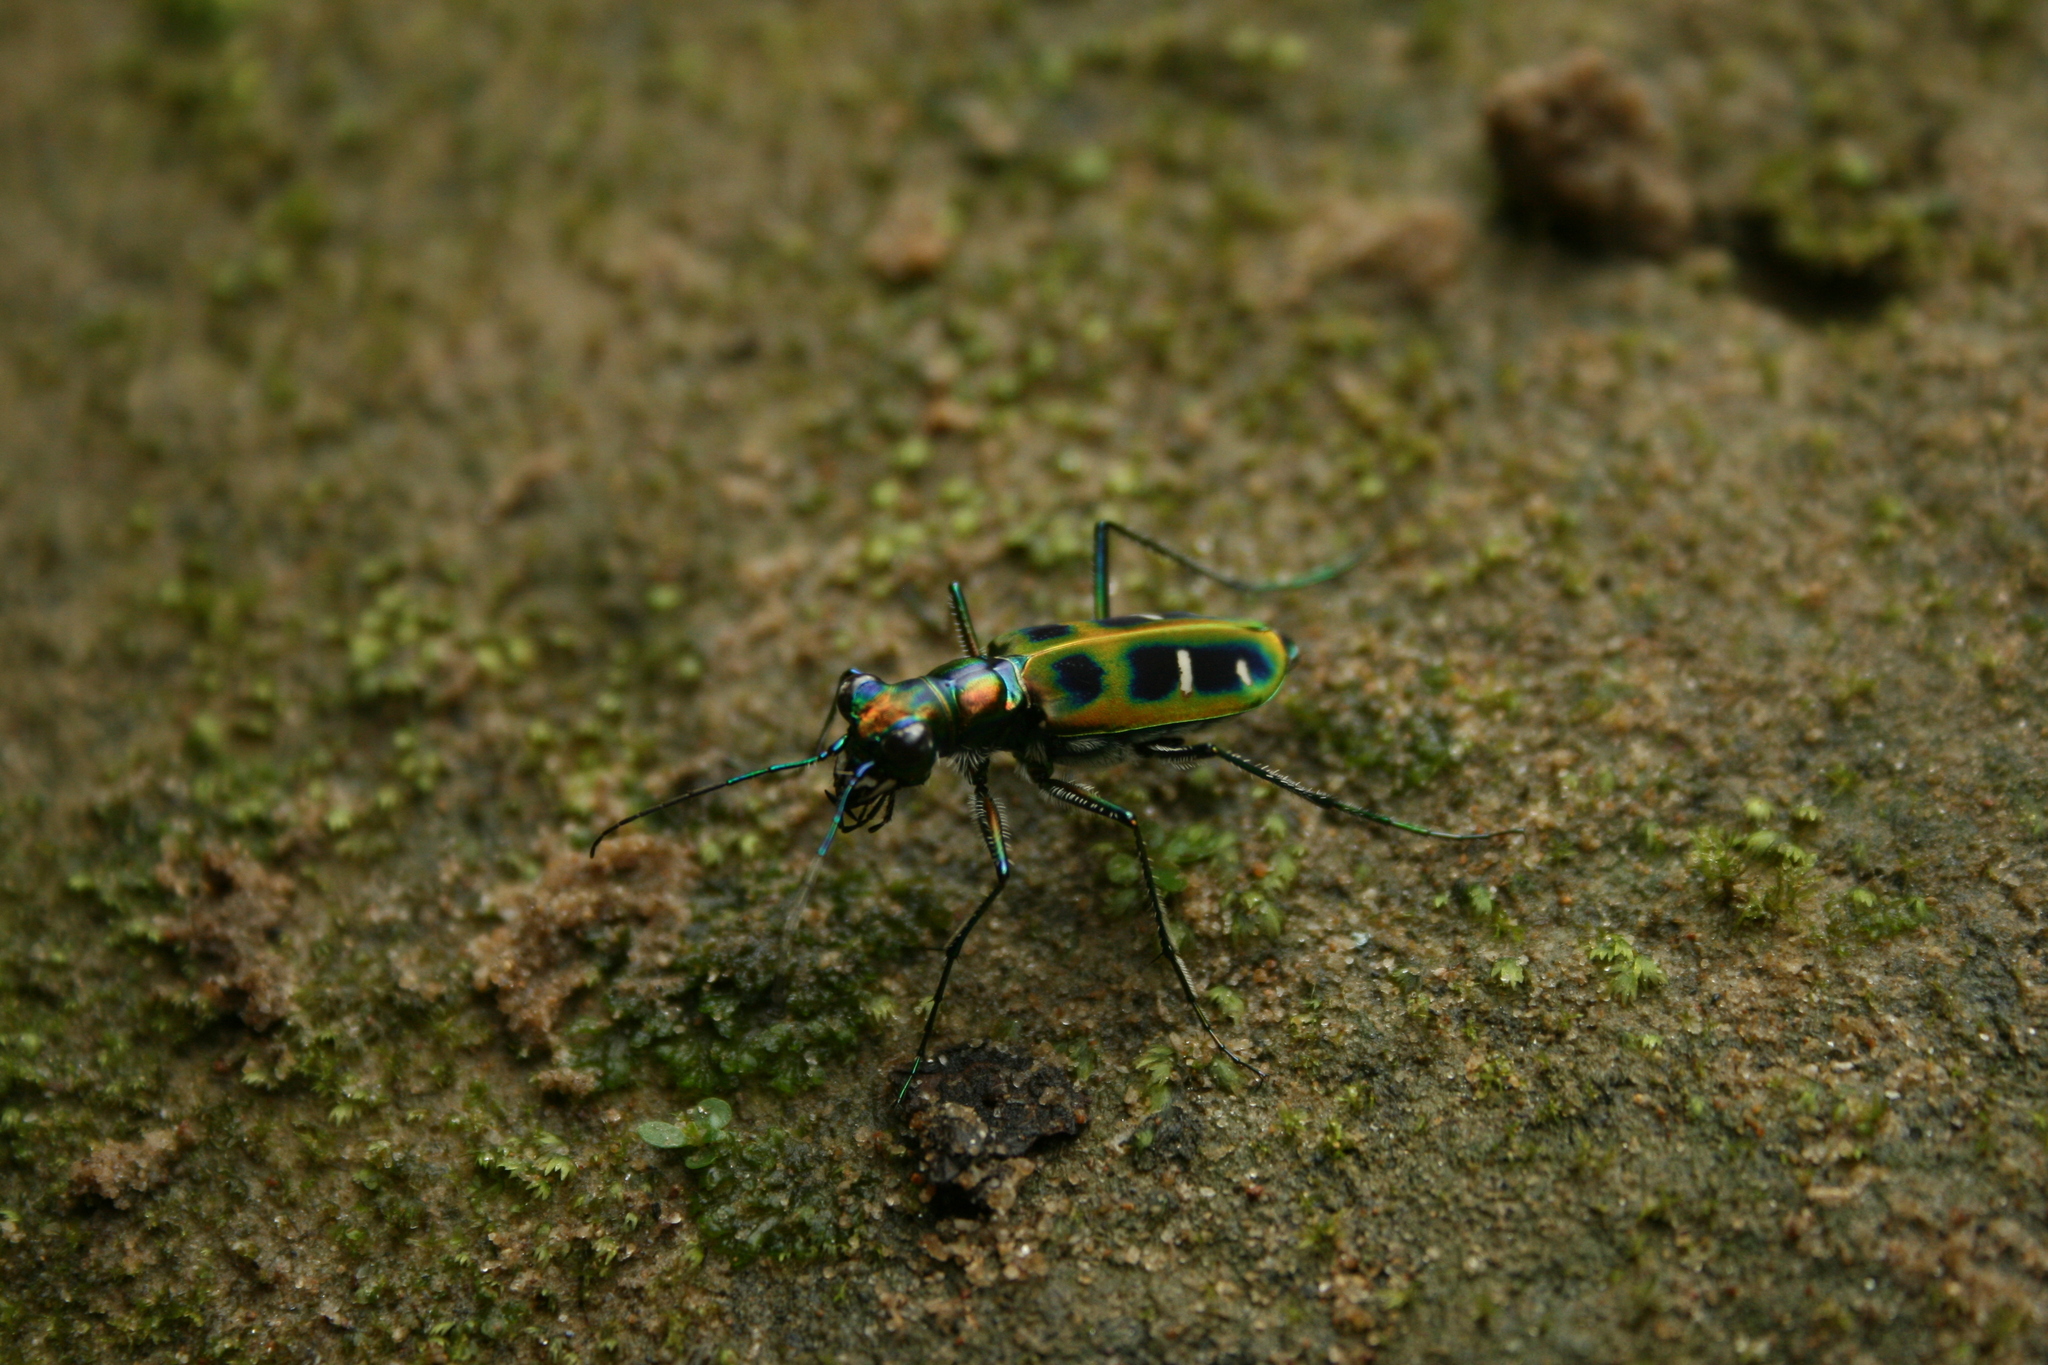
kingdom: Animalia
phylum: Arthropoda
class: Insecta
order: Coleoptera
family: Carabidae
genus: Cicindela
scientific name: Cicindela barmanica
